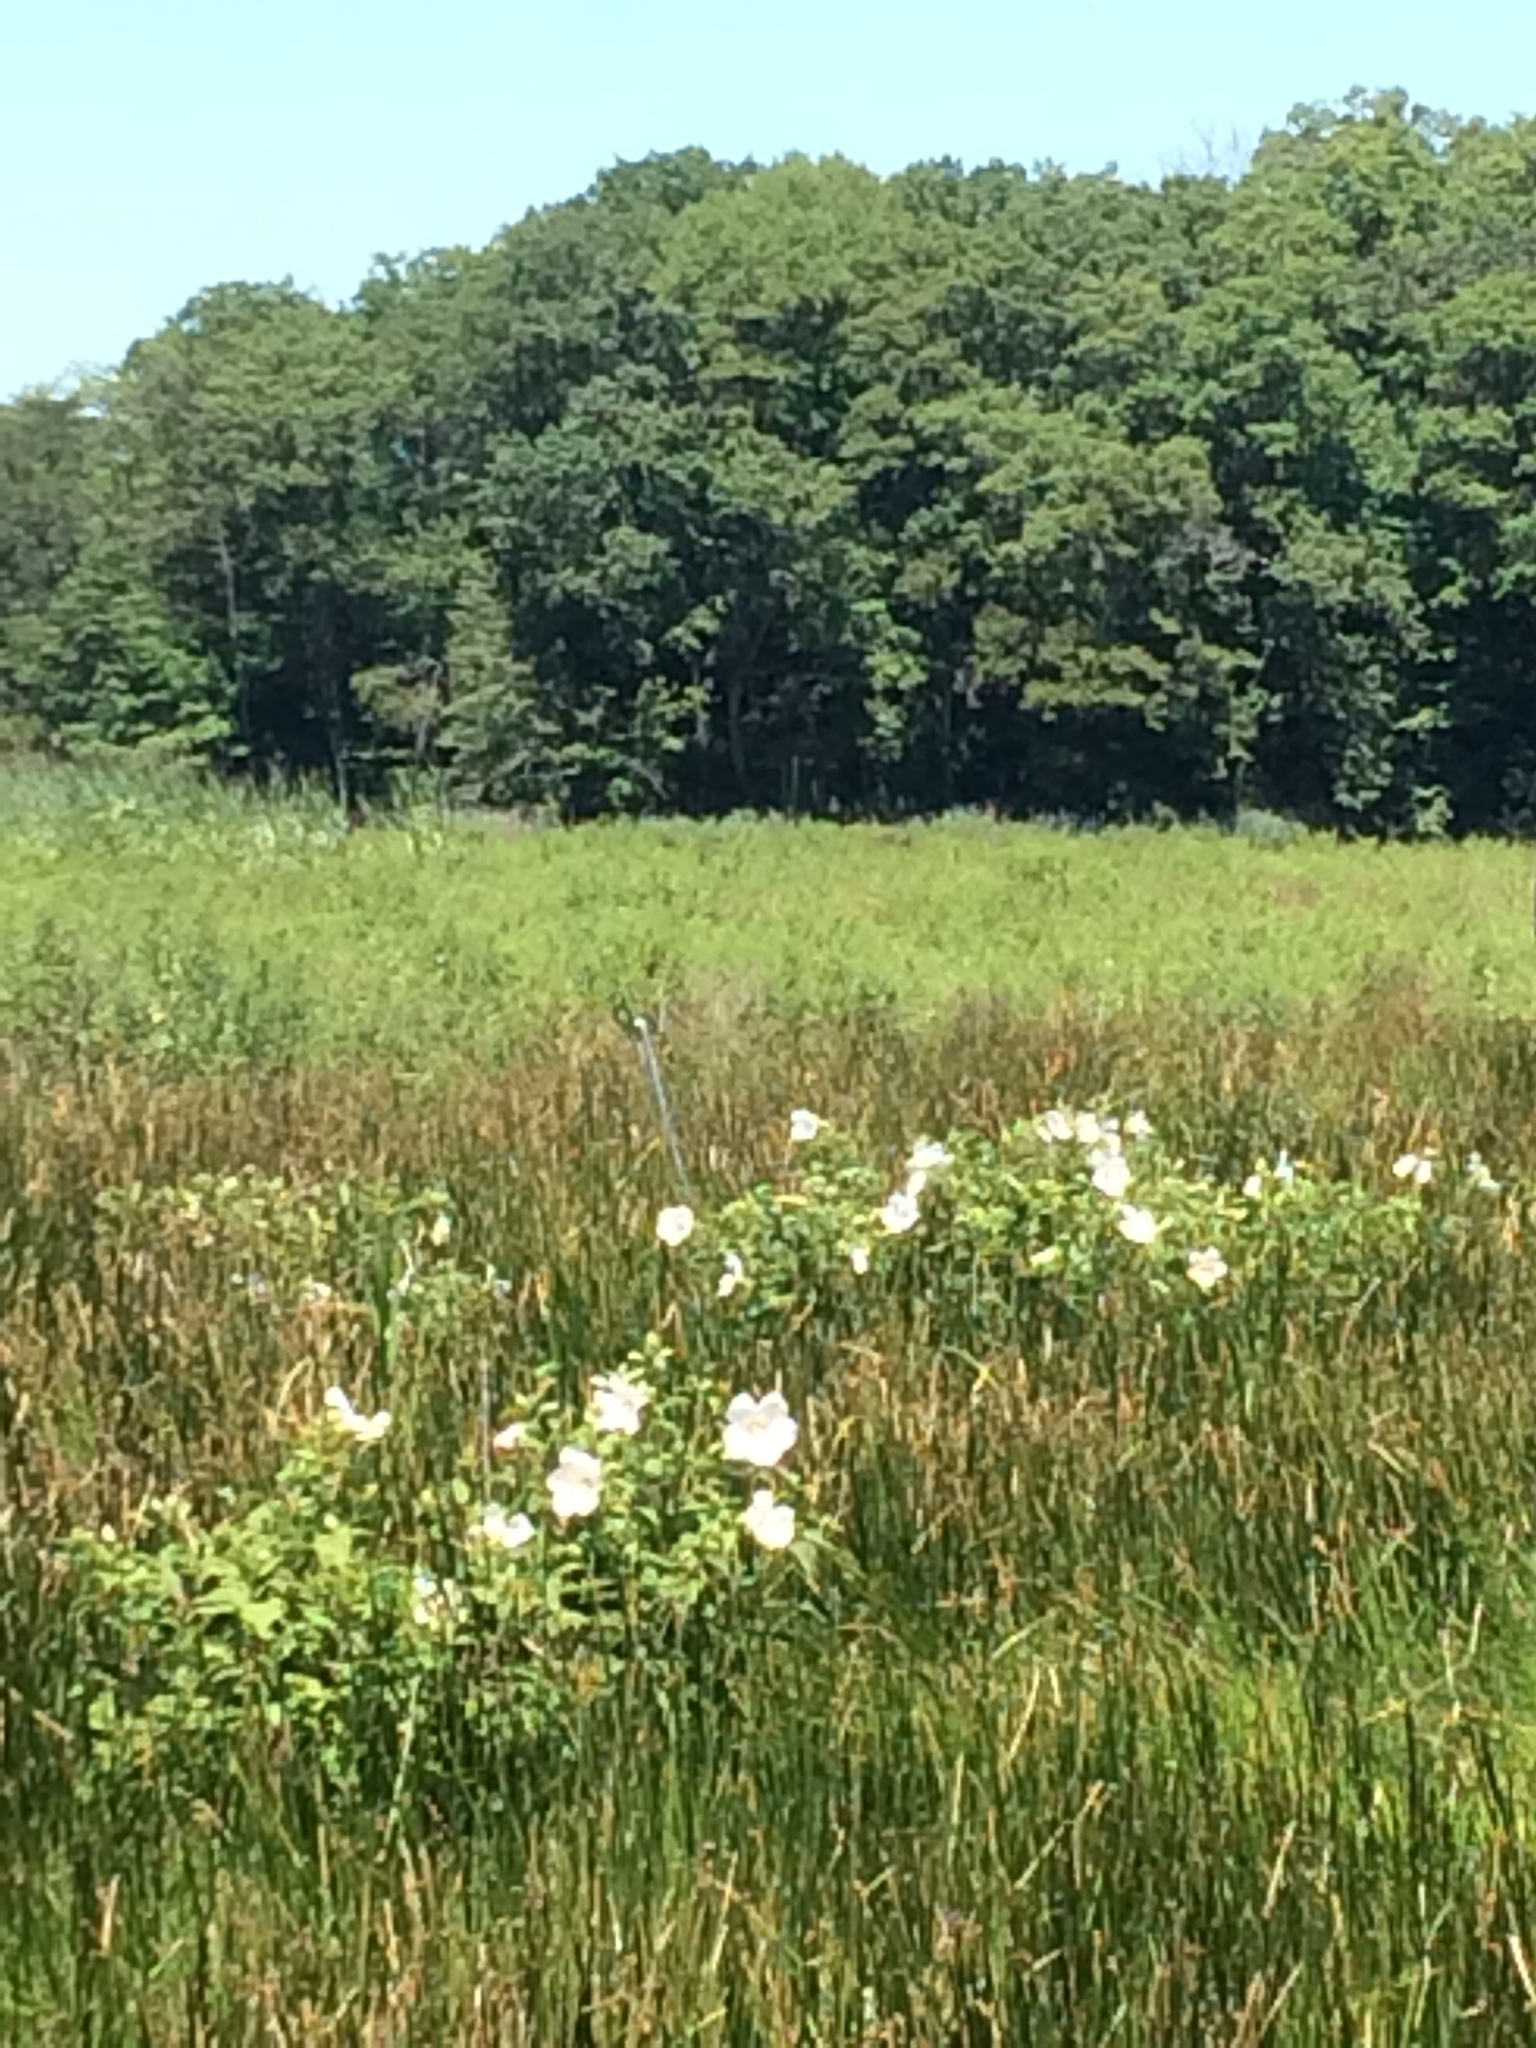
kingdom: Plantae
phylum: Tracheophyta
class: Magnoliopsida
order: Malvales
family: Malvaceae
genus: Hibiscus
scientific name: Hibiscus moscheutos
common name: Common rose-mallow
